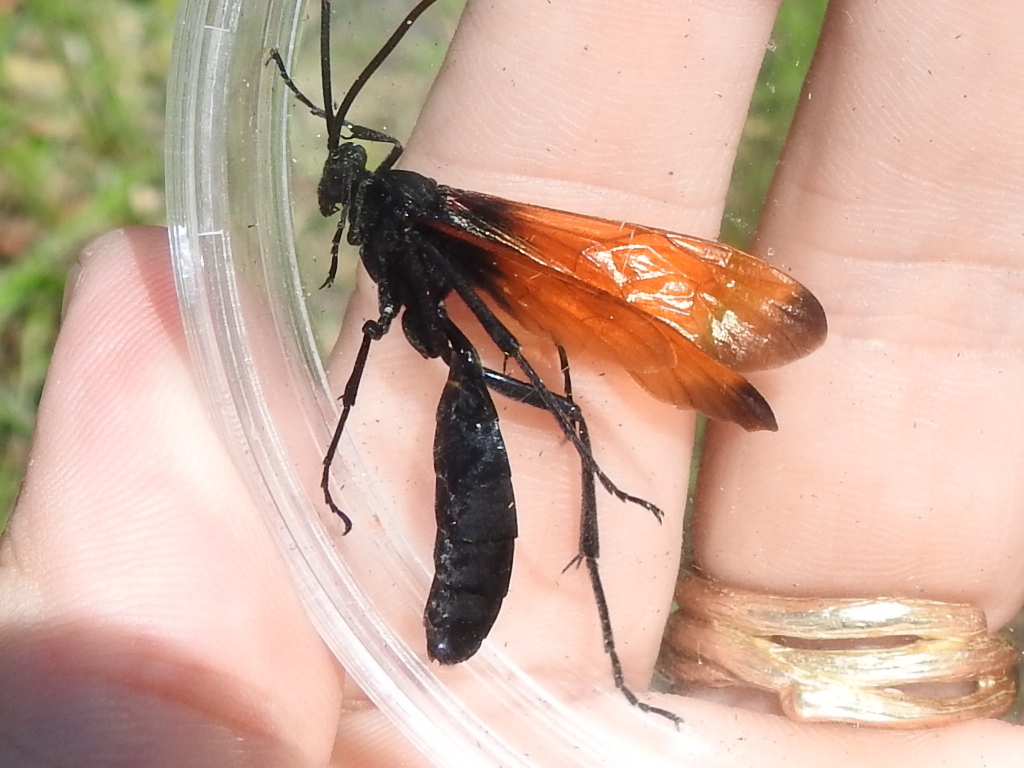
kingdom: Animalia
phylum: Arthropoda
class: Insecta
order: Hymenoptera
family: Ichneumonidae
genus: Rhynchophion
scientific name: Rhynchophion flammipennis
